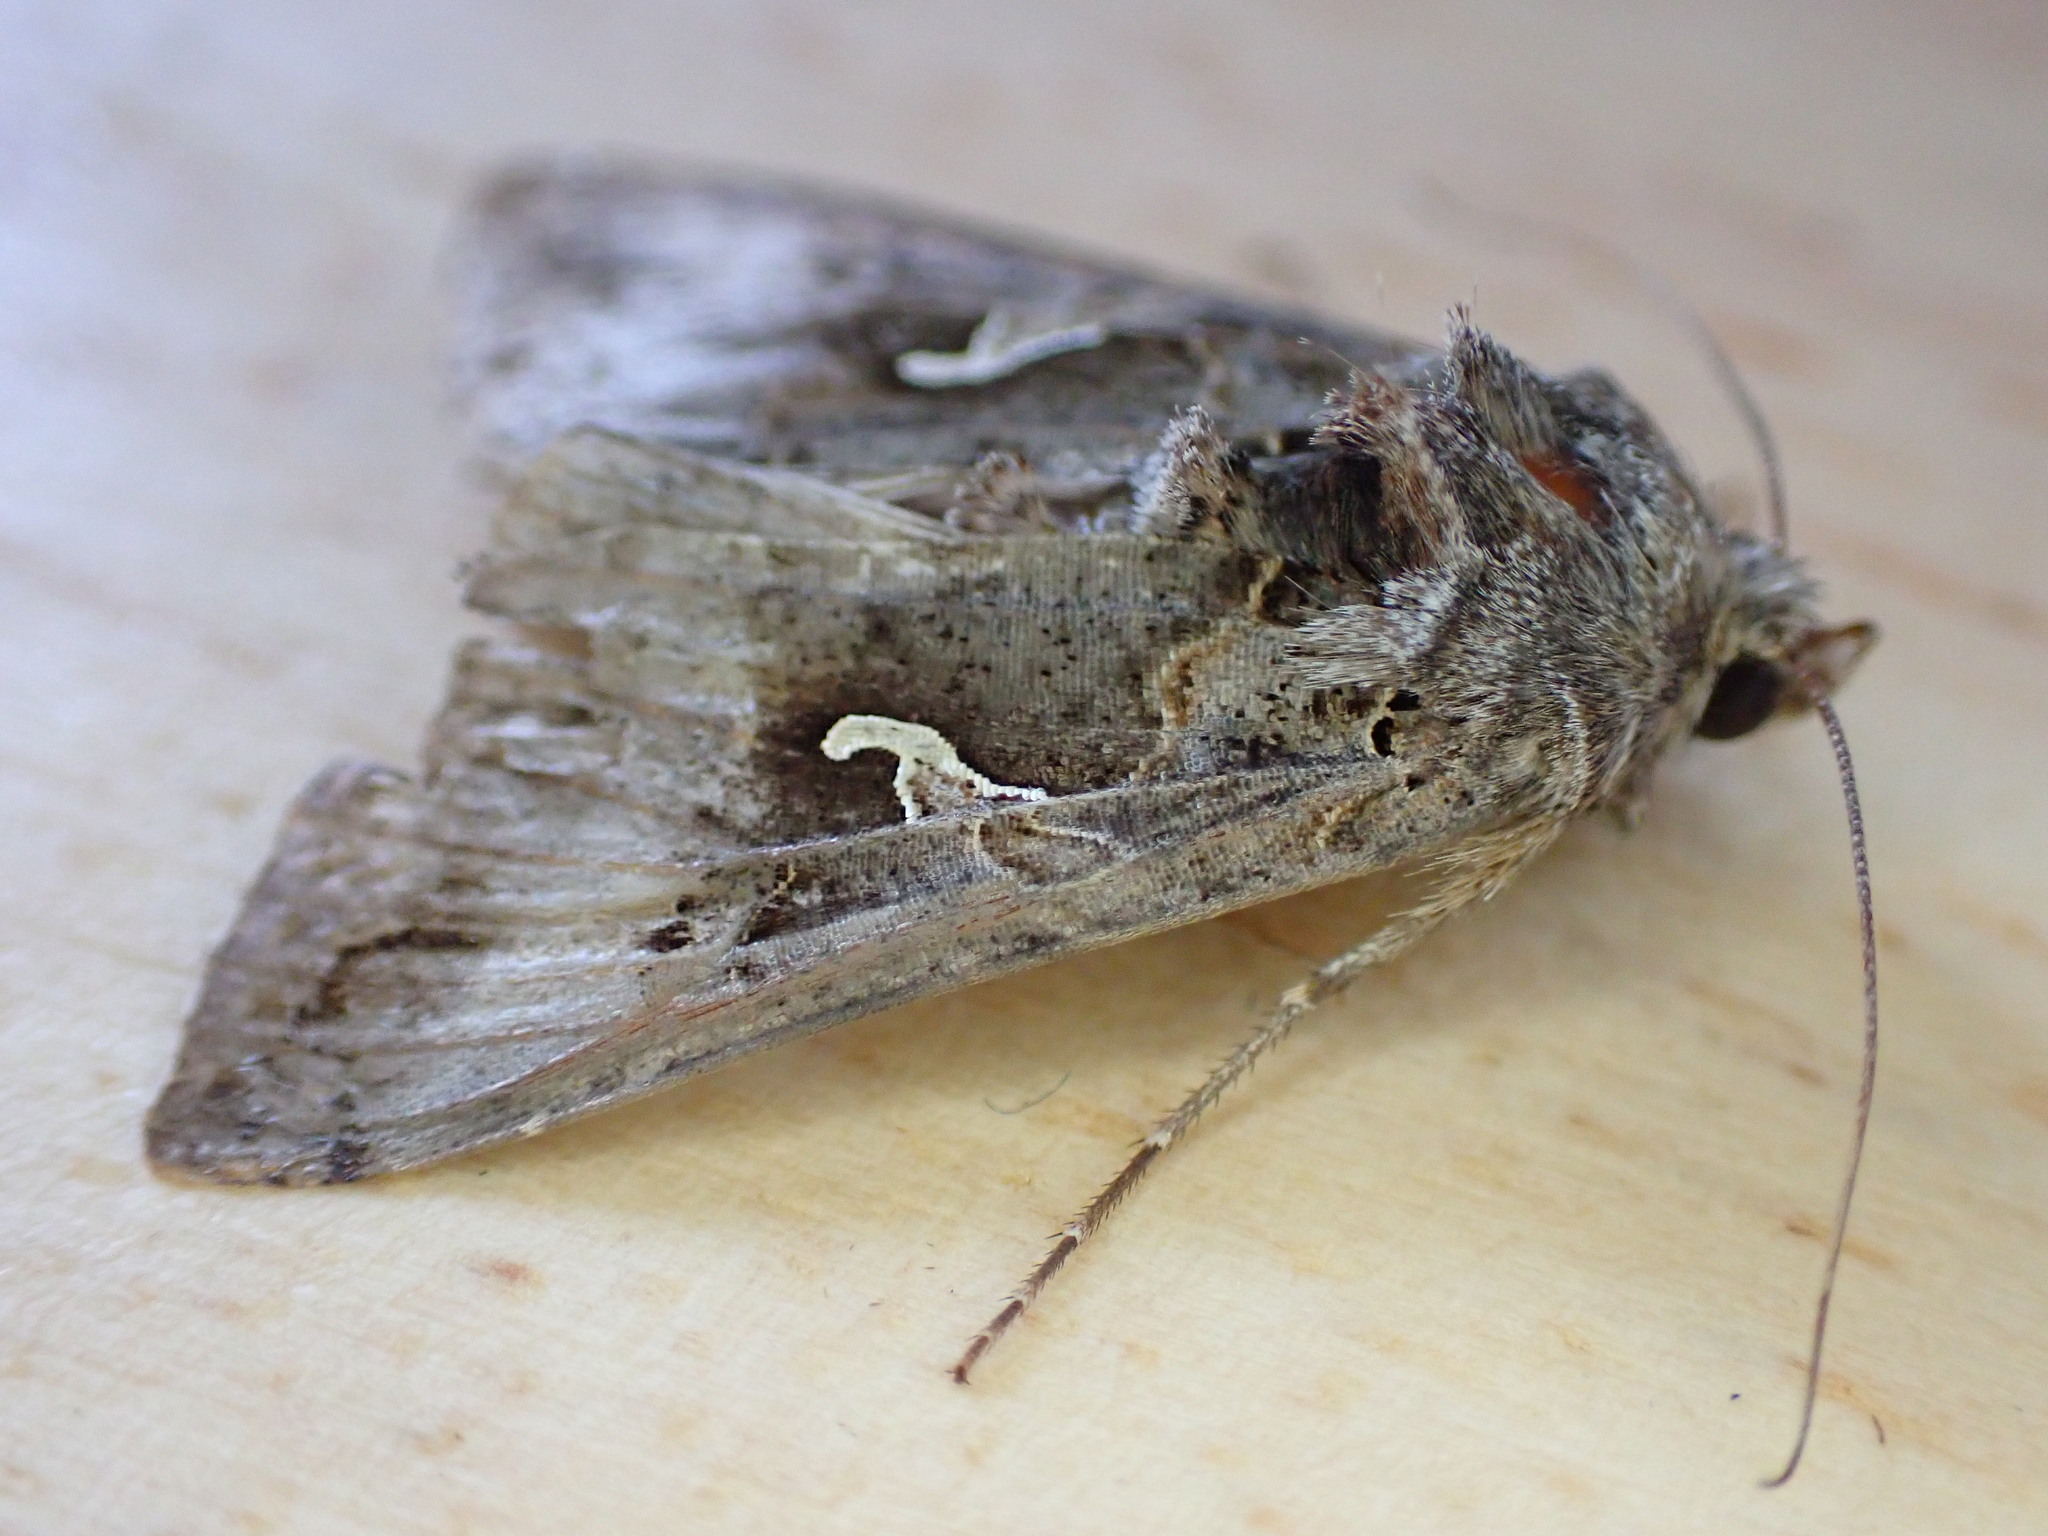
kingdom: Animalia
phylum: Arthropoda
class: Insecta
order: Lepidoptera
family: Noctuidae
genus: Autographa
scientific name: Autographa gamma
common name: Silver y
